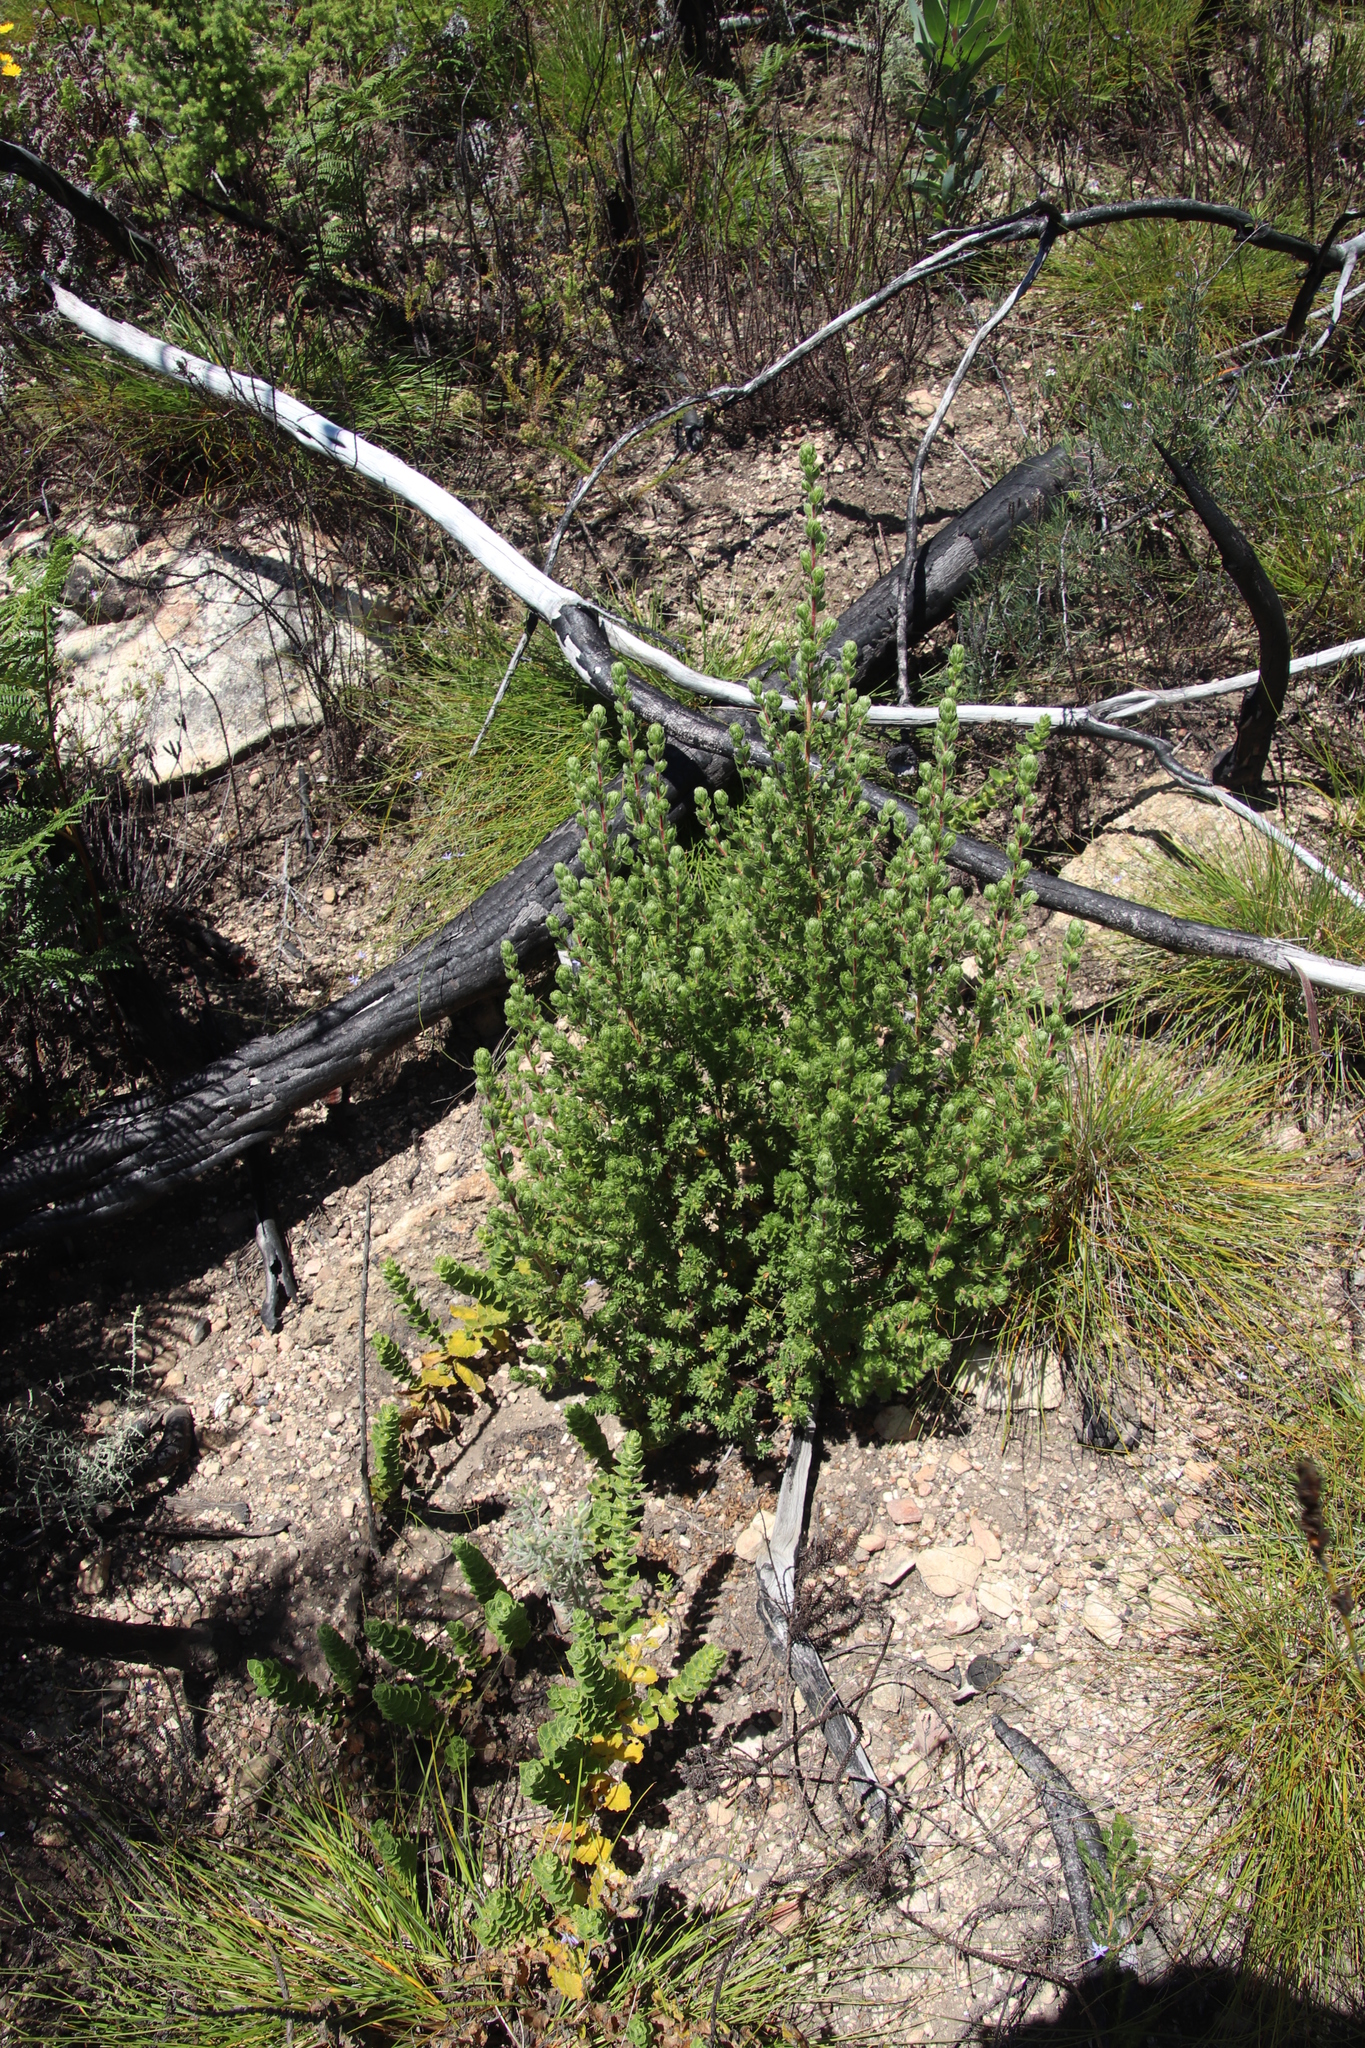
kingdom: Plantae
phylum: Tracheophyta
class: Magnoliopsida
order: Rosales
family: Rosaceae
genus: Cliffortia
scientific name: Cliffortia polygonifolia
